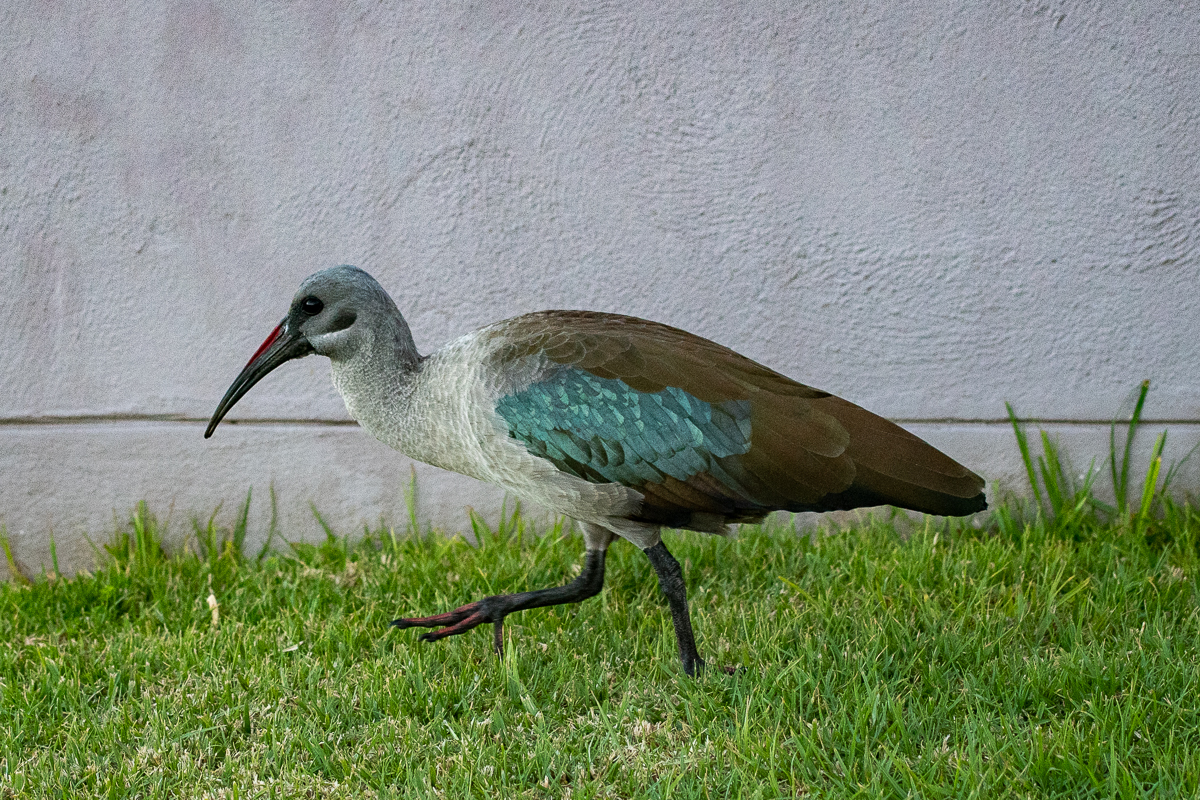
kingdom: Animalia
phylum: Chordata
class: Aves
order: Pelecaniformes
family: Threskiornithidae
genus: Bostrychia
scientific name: Bostrychia hagedash
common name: Hadada ibis
